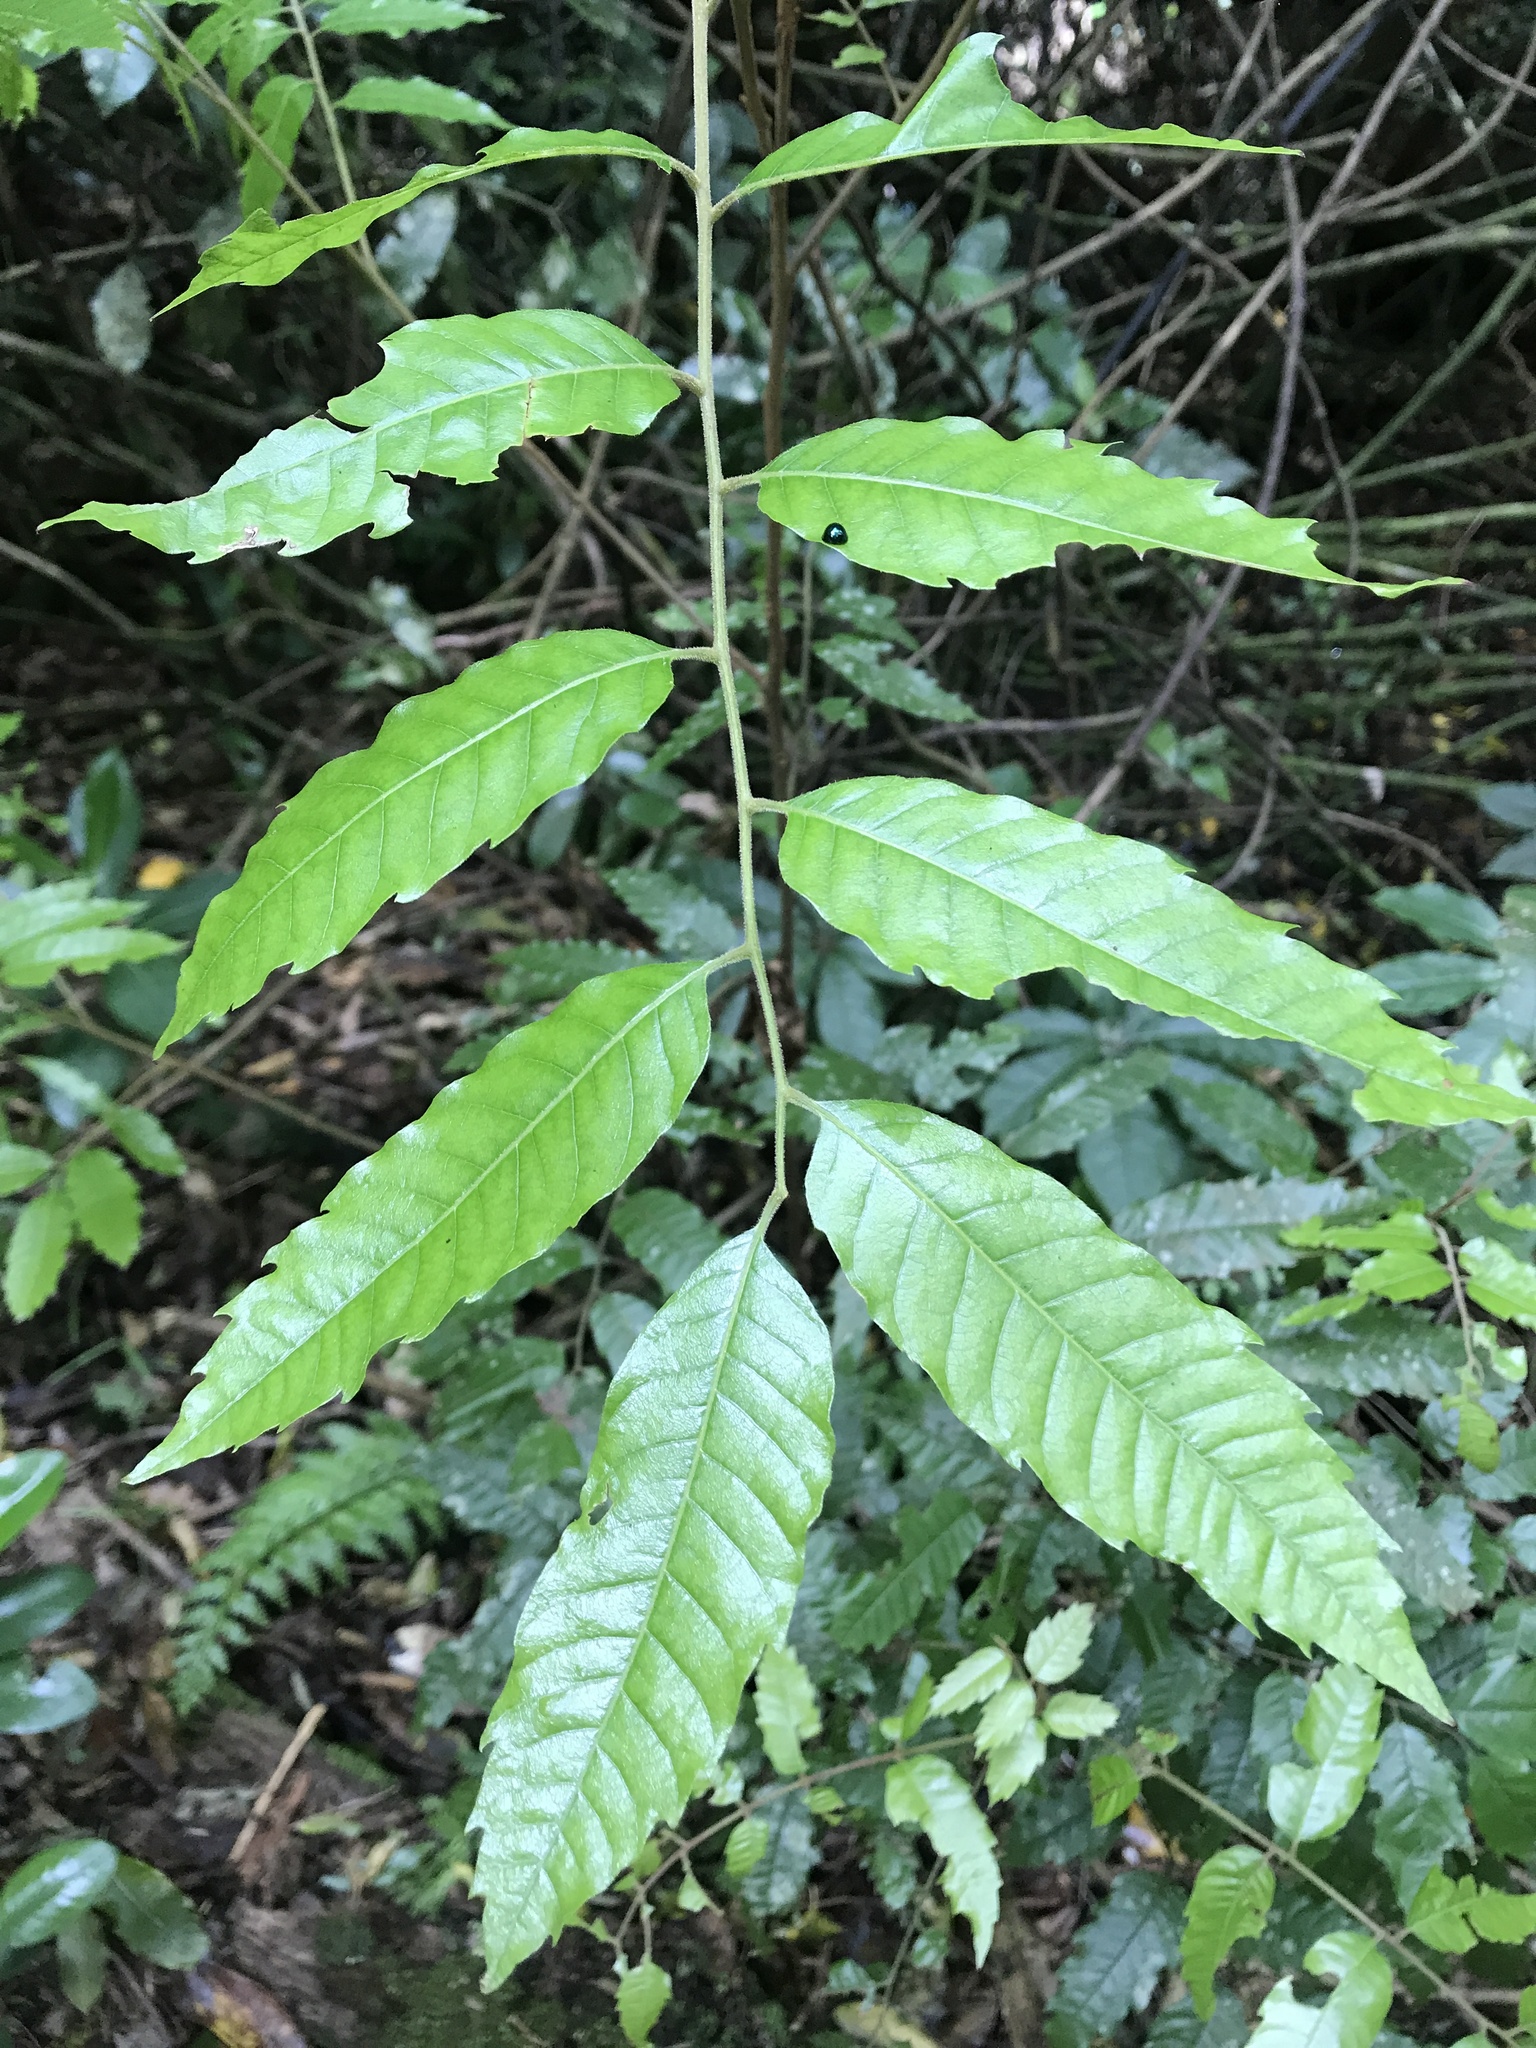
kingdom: Plantae
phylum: Tracheophyta
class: Magnoliopsida
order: Sapindales
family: Sapindaceae
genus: Alectryon
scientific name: Alectryon excelsus
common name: Three kings titoki
